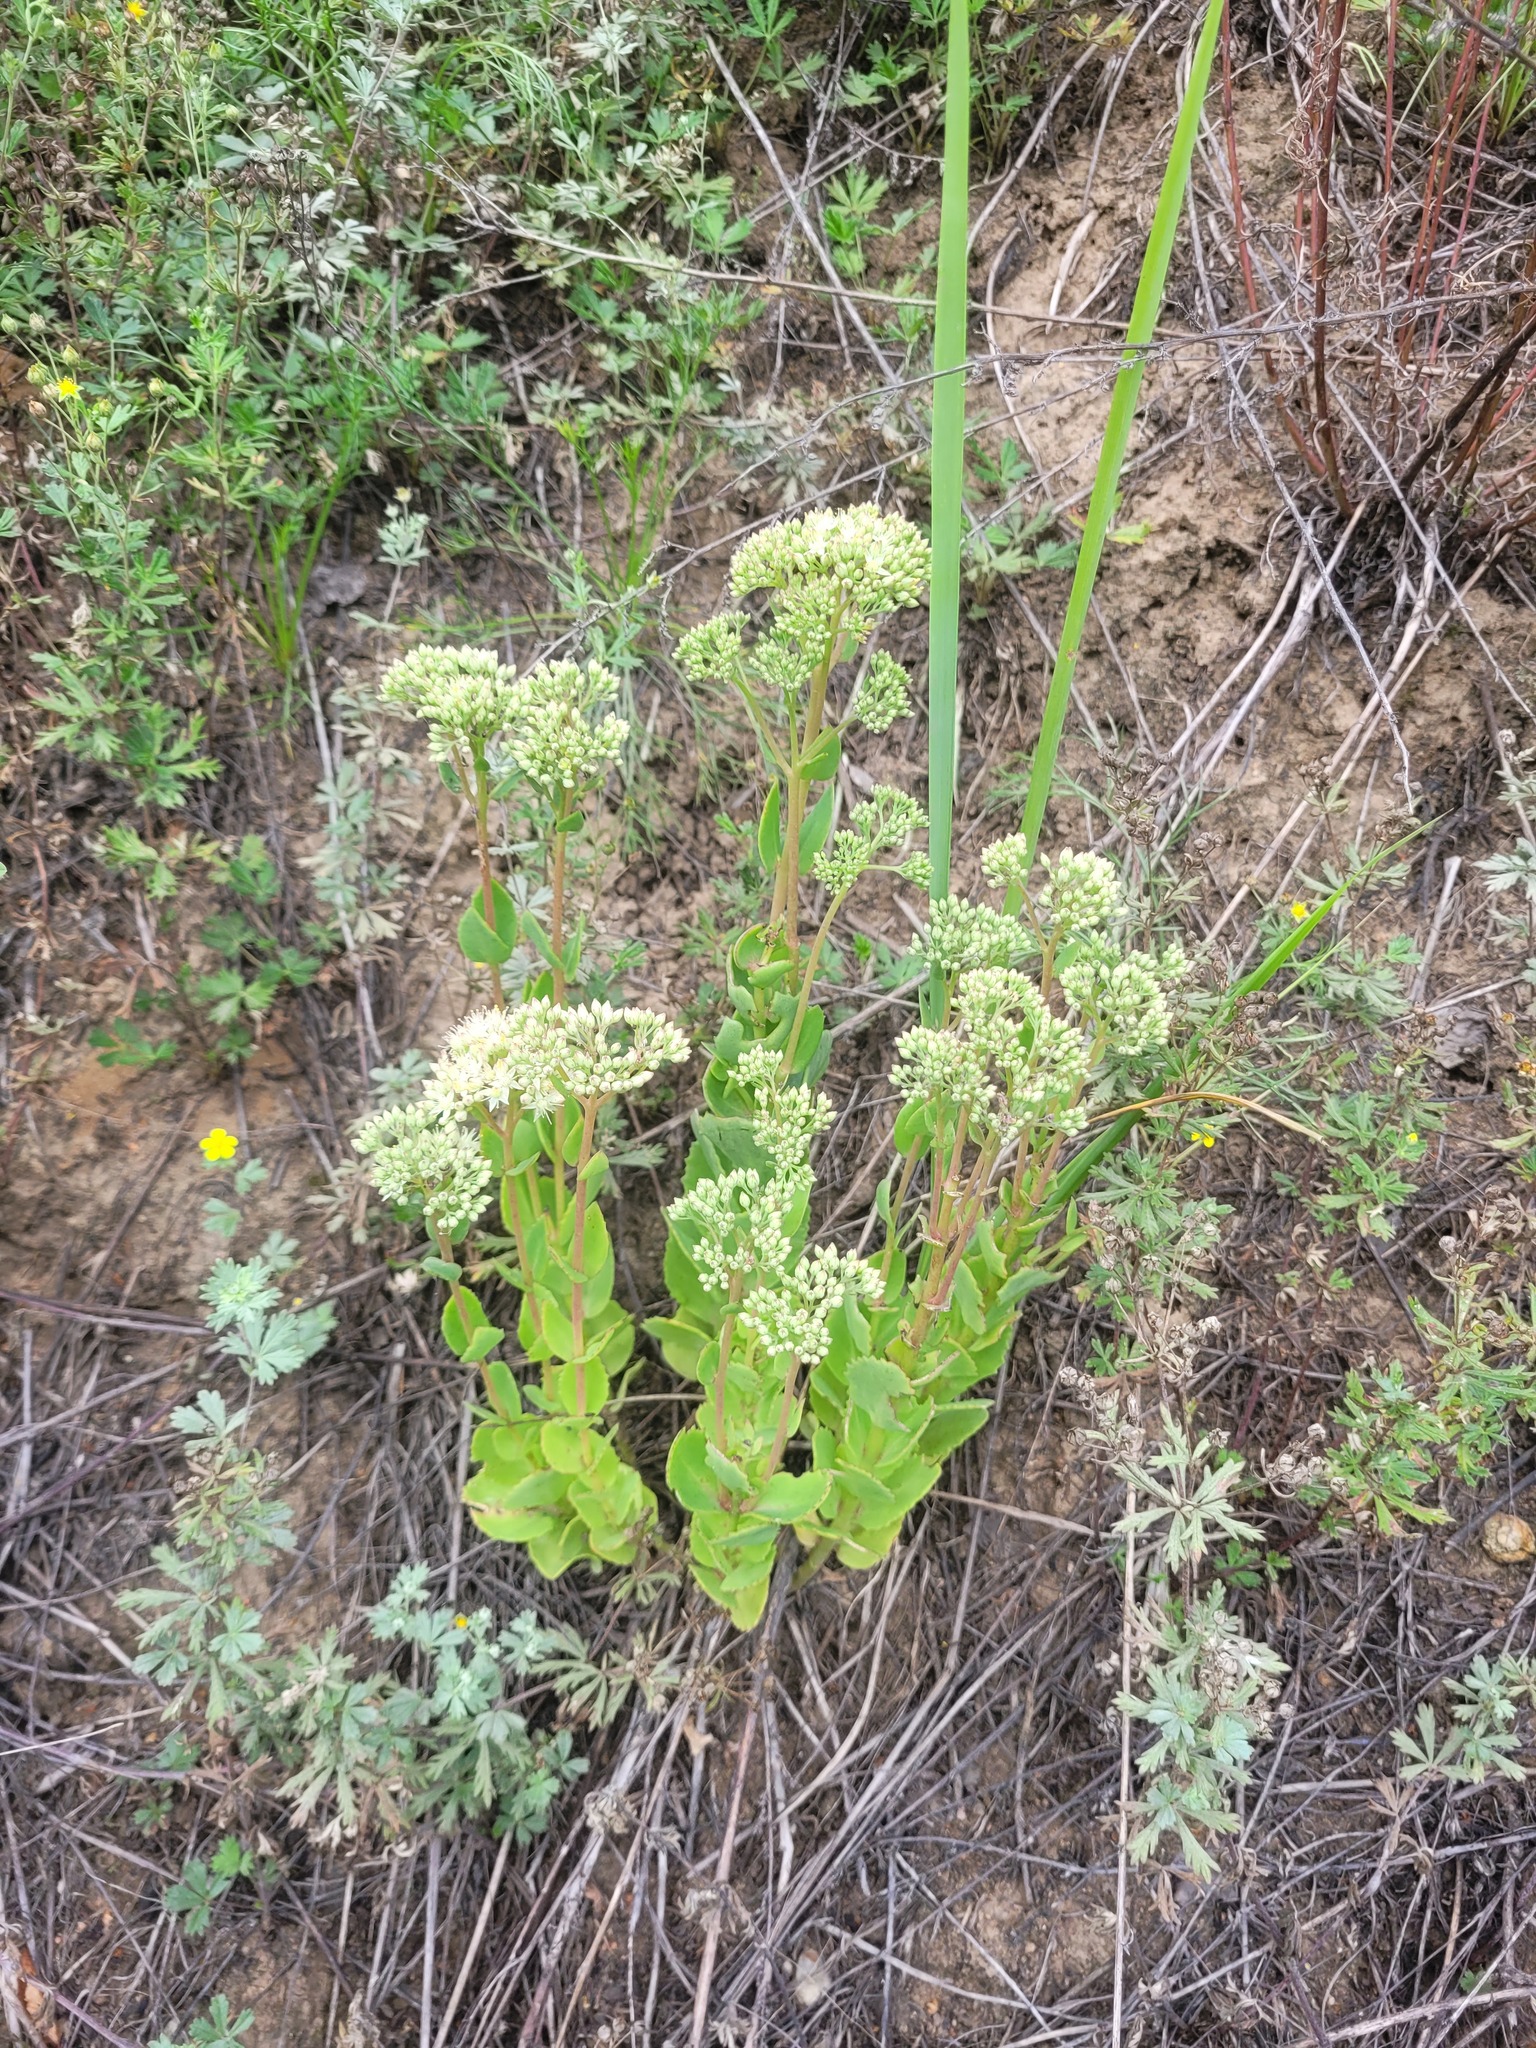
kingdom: Plantae
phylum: Tracheophyta
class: Magnoliopsida
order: Saxifragales
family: Crassulaceae
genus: Hylotelephium
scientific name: Hylotelephium maximum
